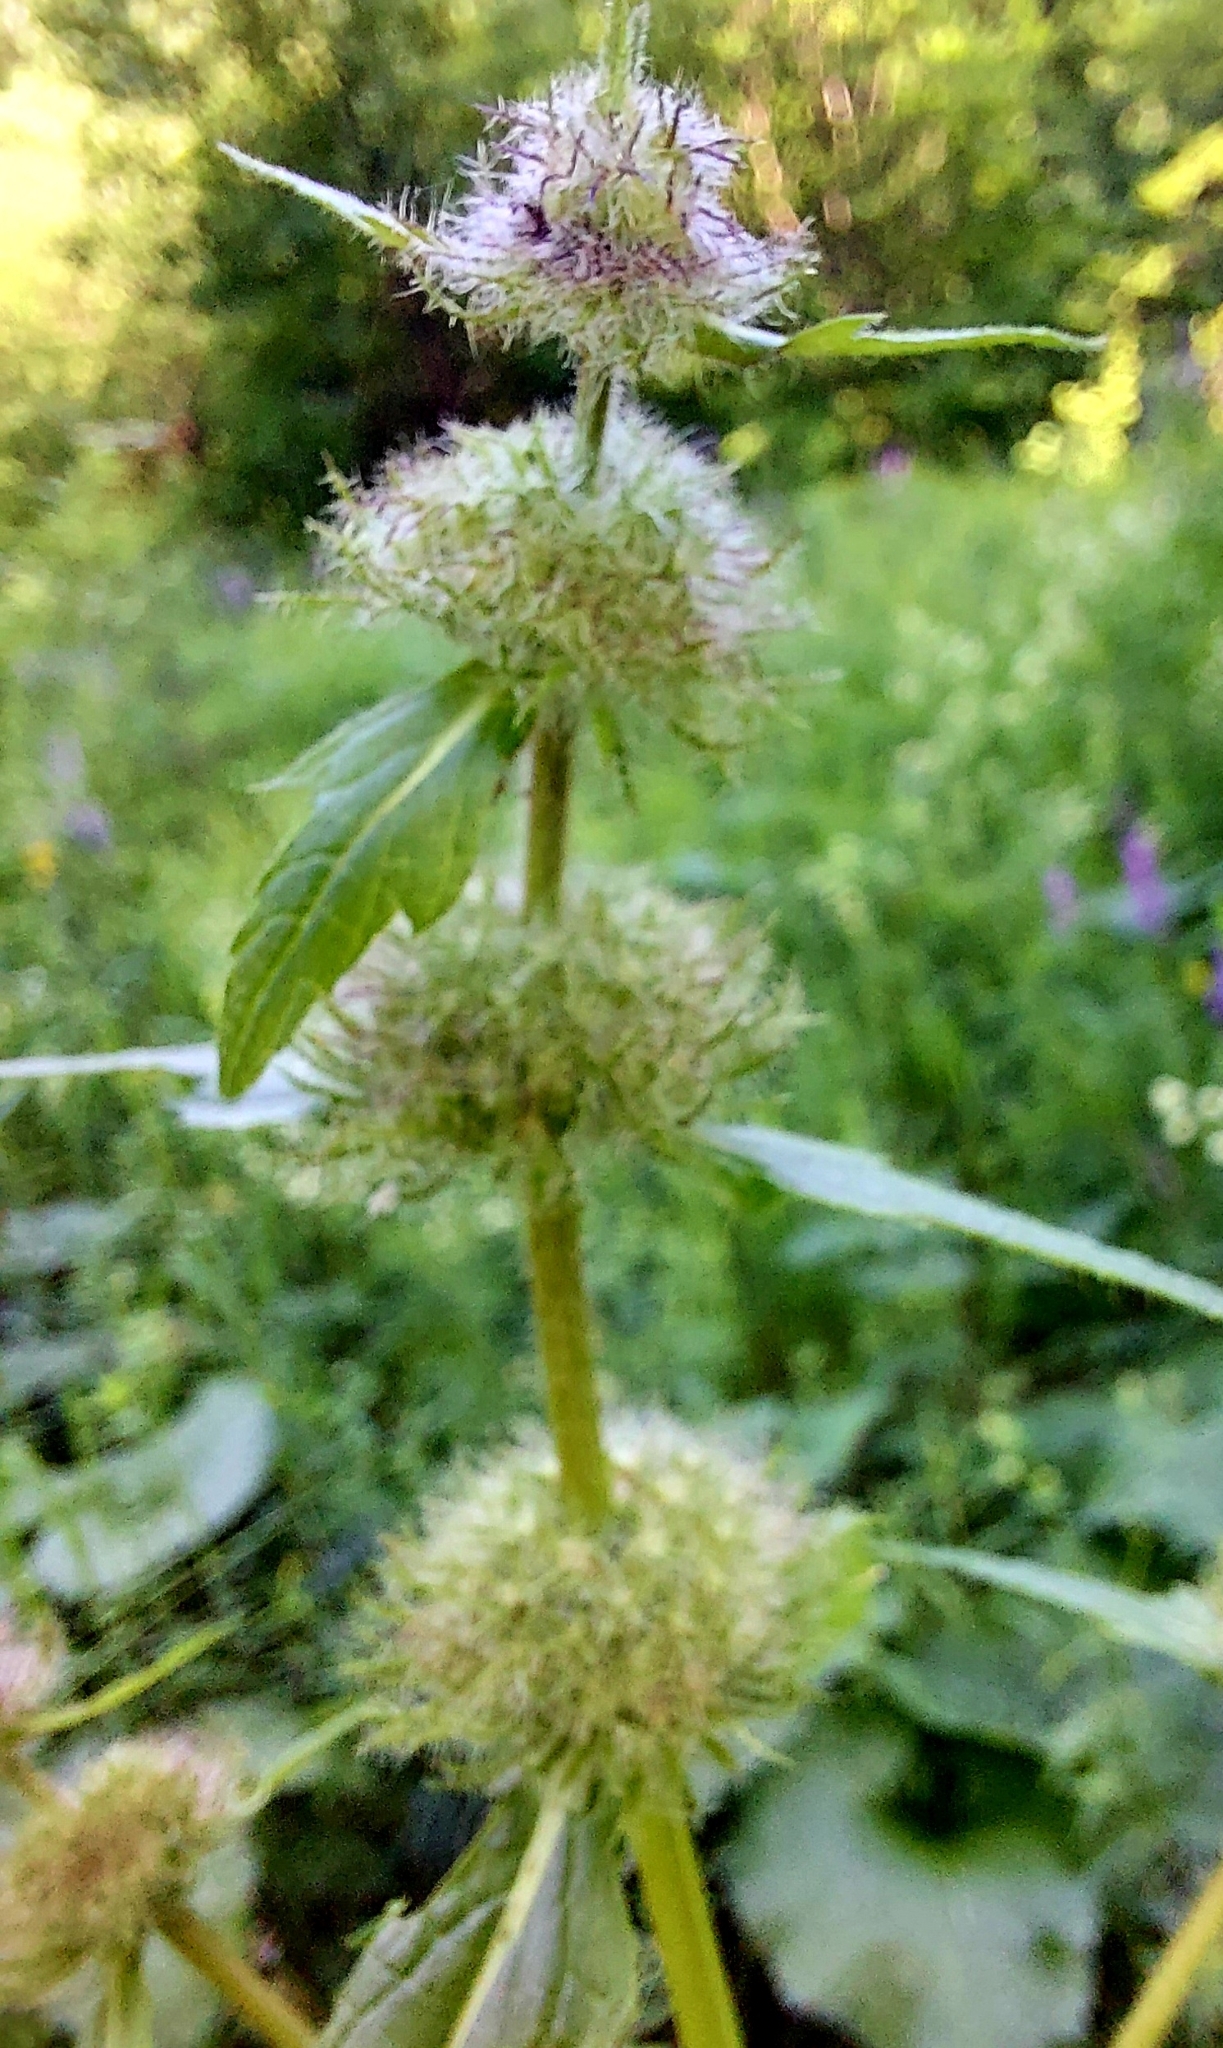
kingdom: Plantae
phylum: Tracheophyta
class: Magnoliopsida
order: Lamiales
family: Lamiaceae
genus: Phlomoides
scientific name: Phlomoides tuberosa
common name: Tuberous jerusalem sage
